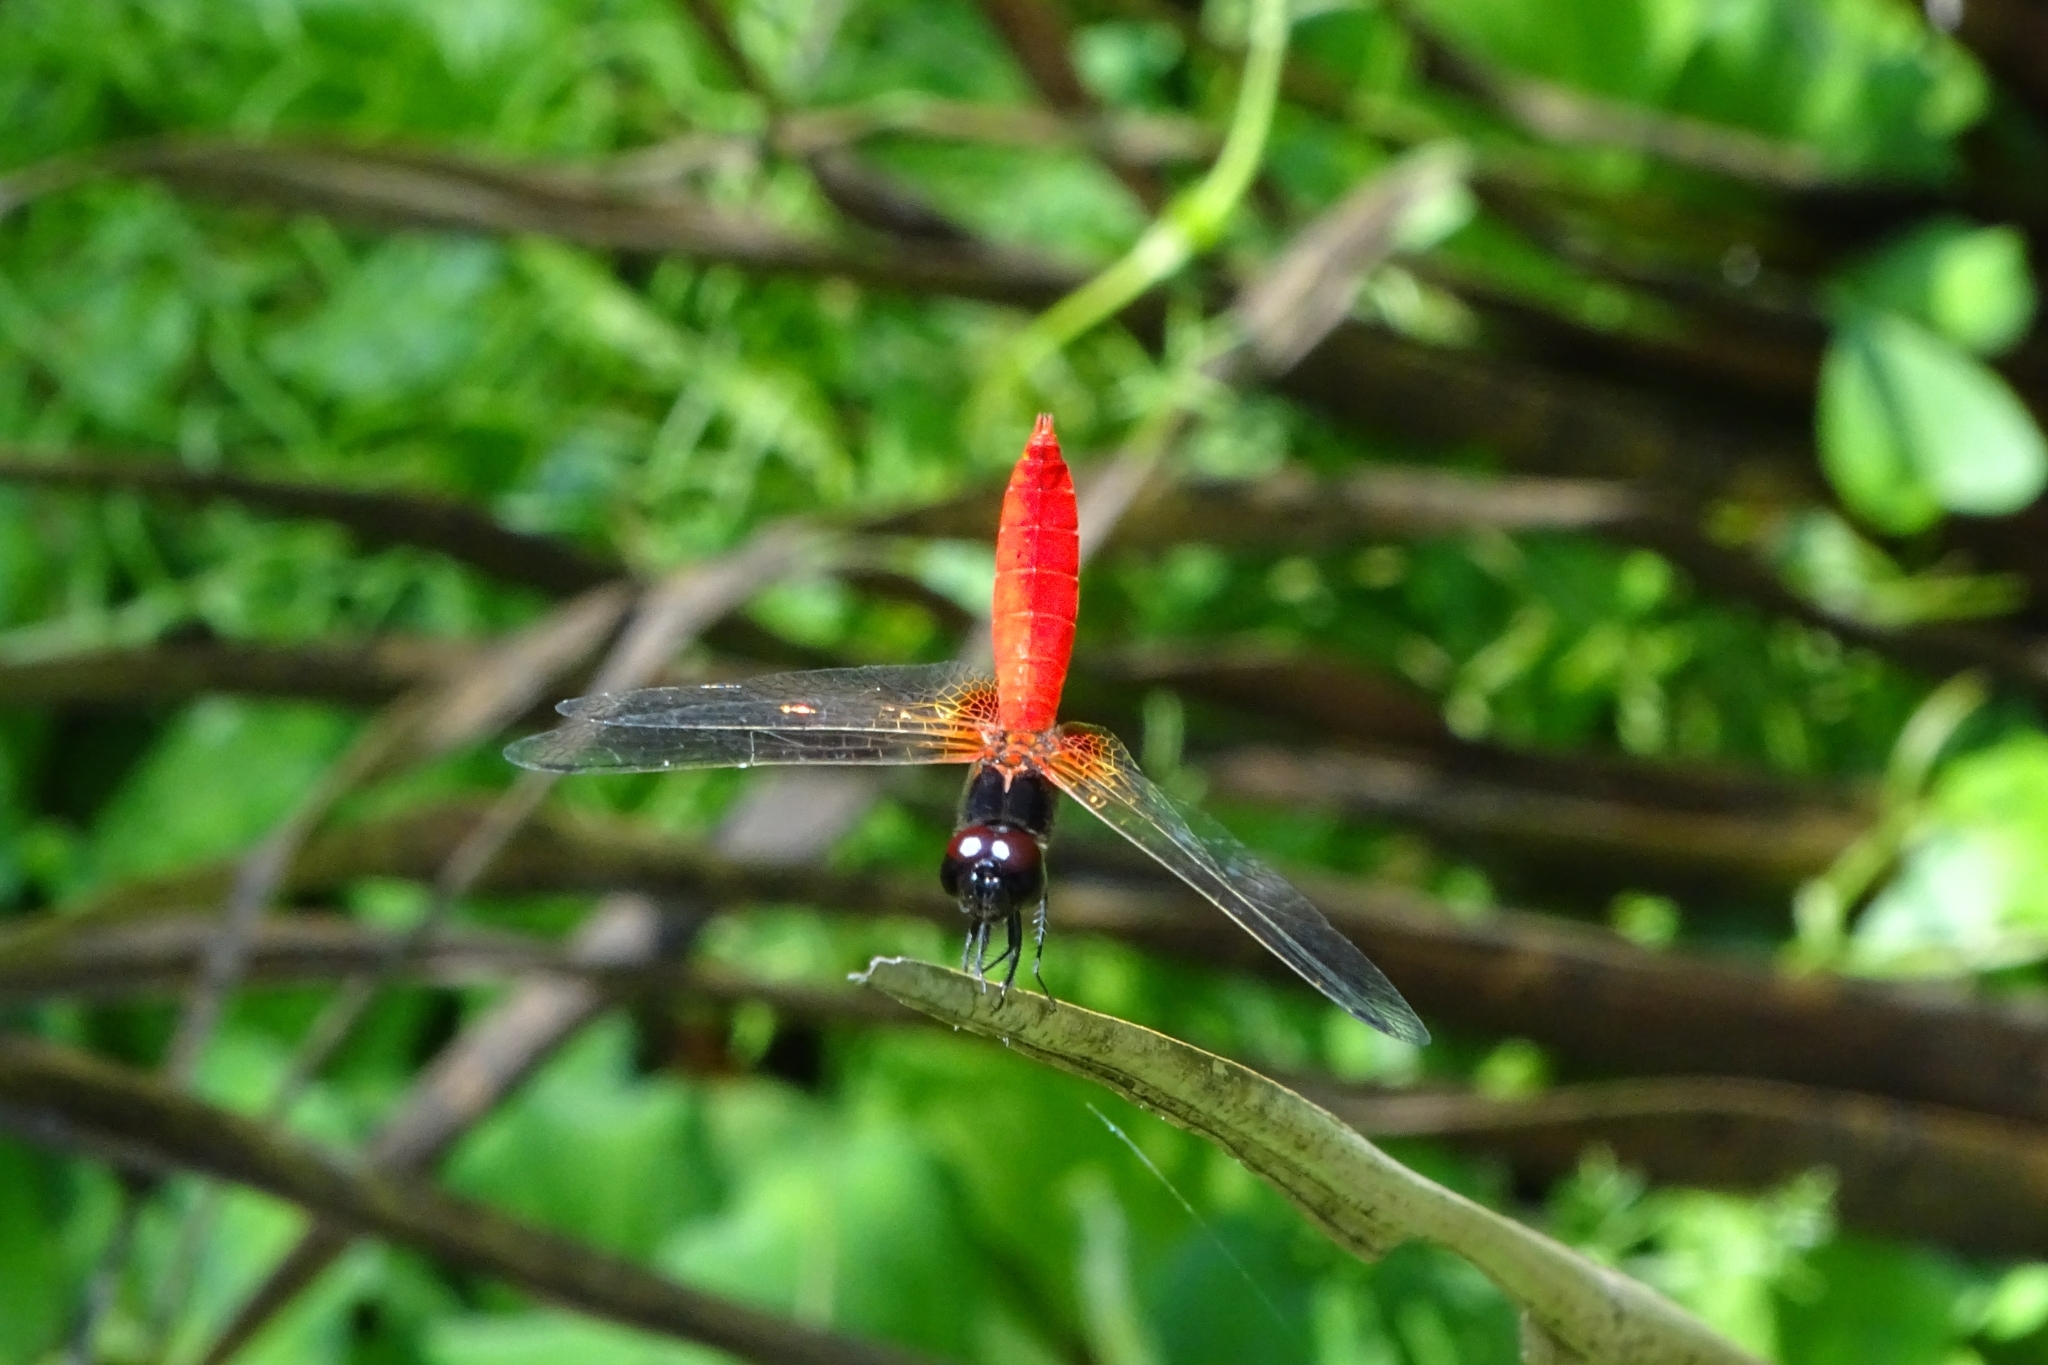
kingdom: Animalia
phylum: Arthropoda
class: Insecta
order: Odonata
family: Libellulidae
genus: Aethriamanta
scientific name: Aethriamanta brevipennis
